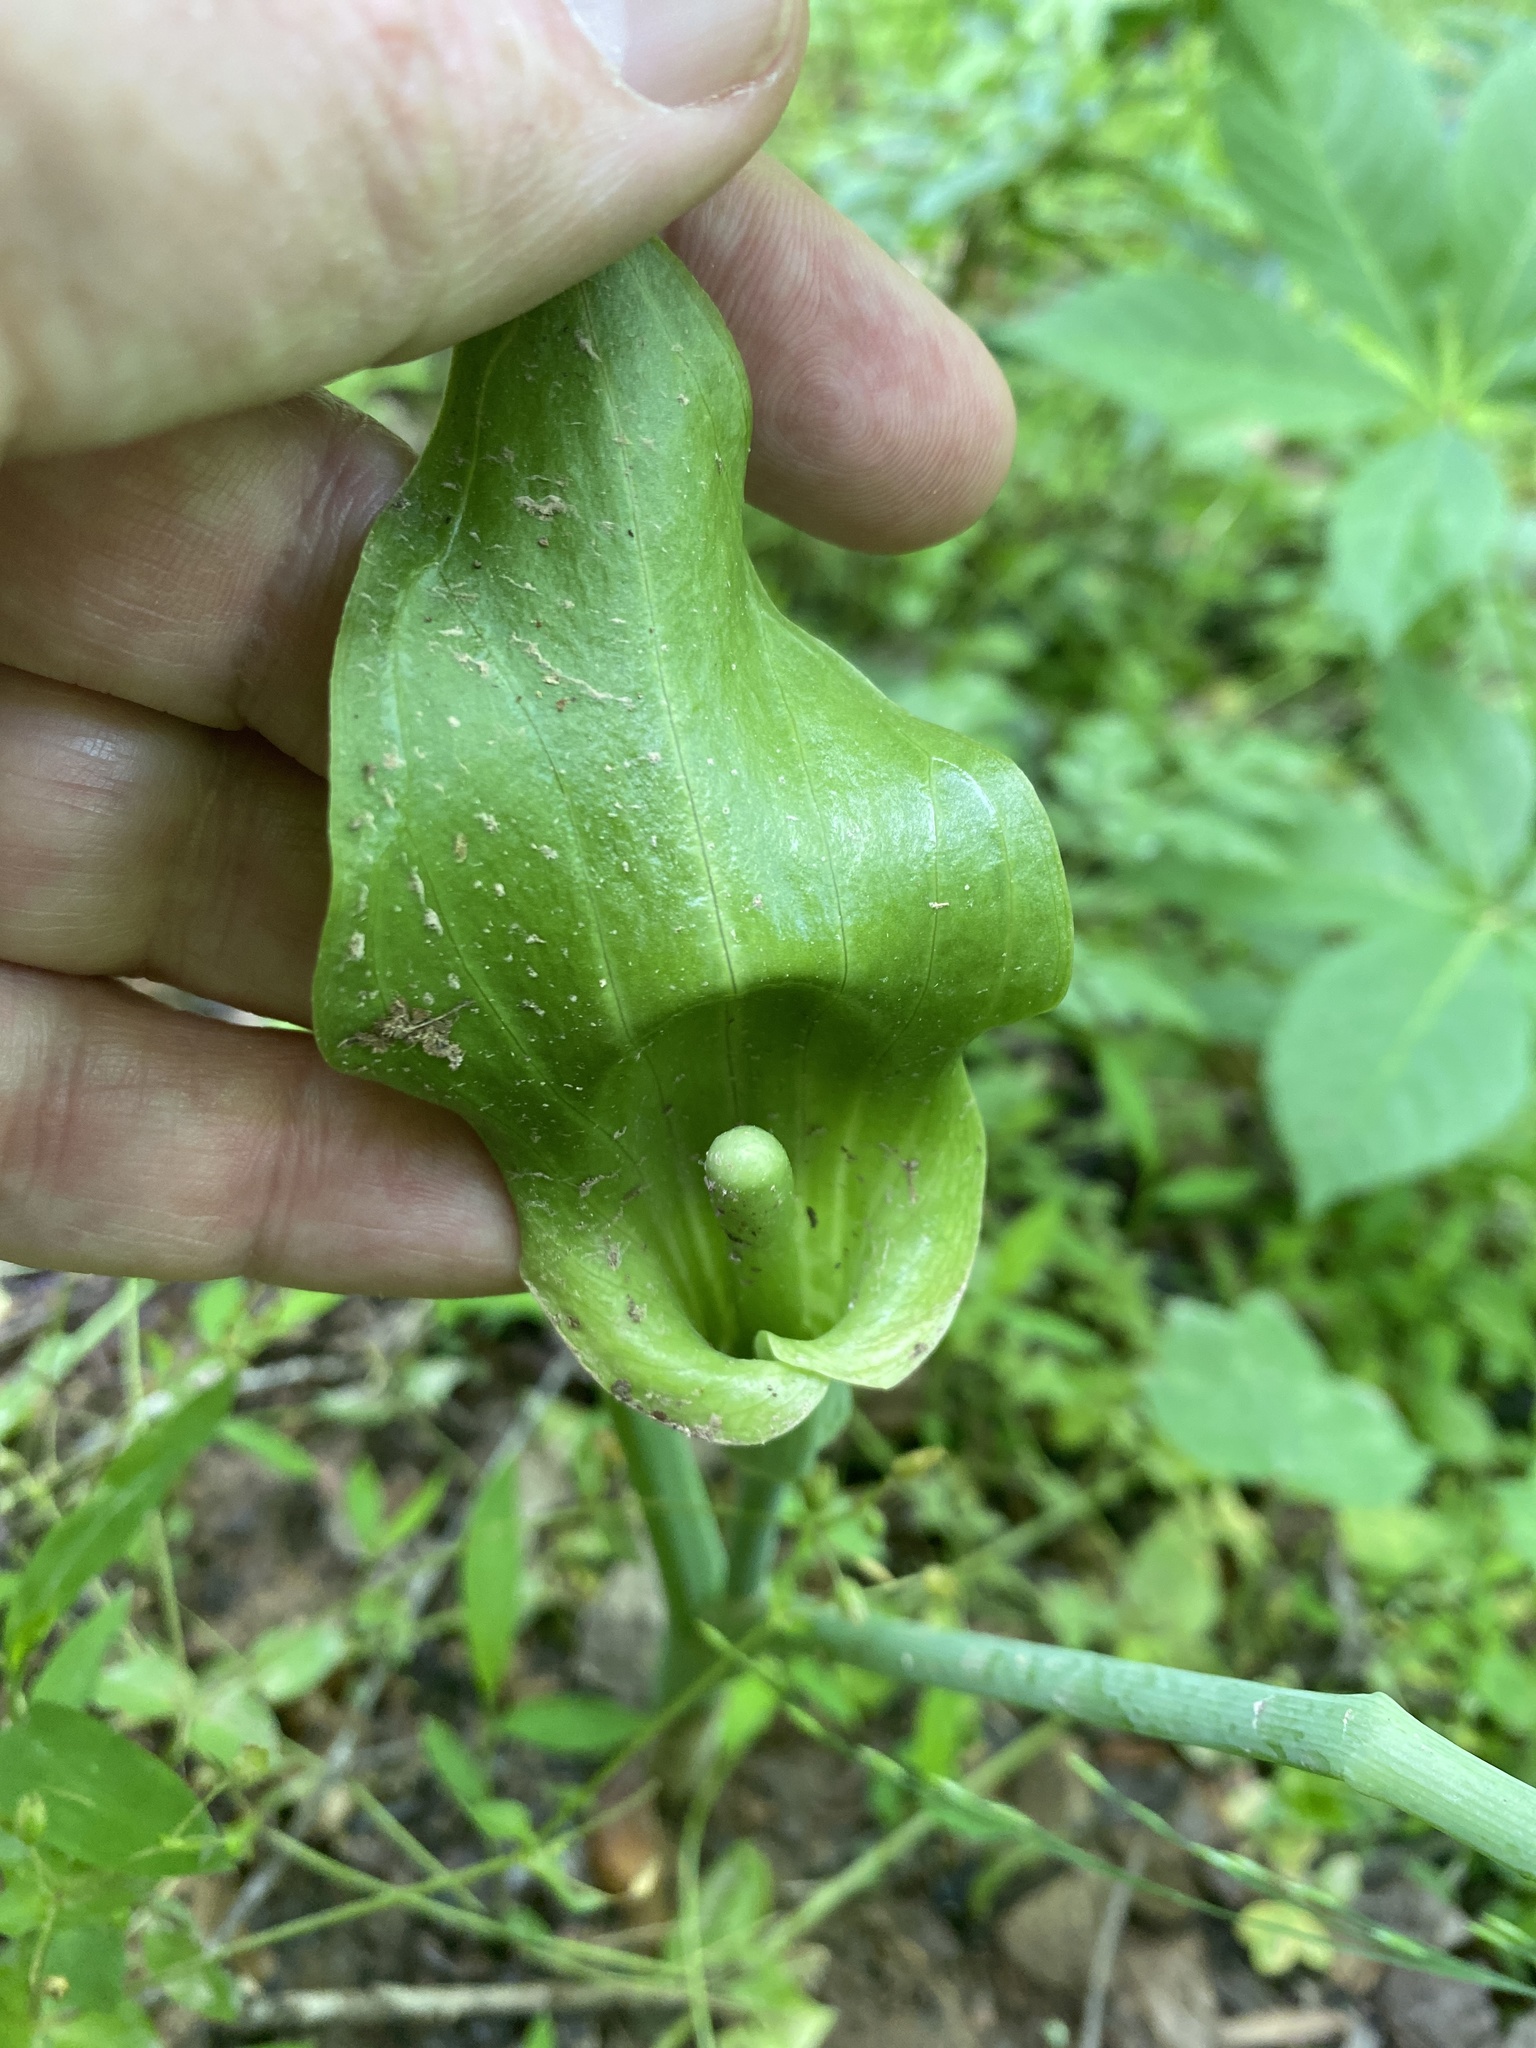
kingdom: Plantae
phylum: Tracheophyta
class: Liliopsida
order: Alismatales
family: Araceae
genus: Arisaema
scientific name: Arisaema triphyllum
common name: Jack-in-the-pulpit
